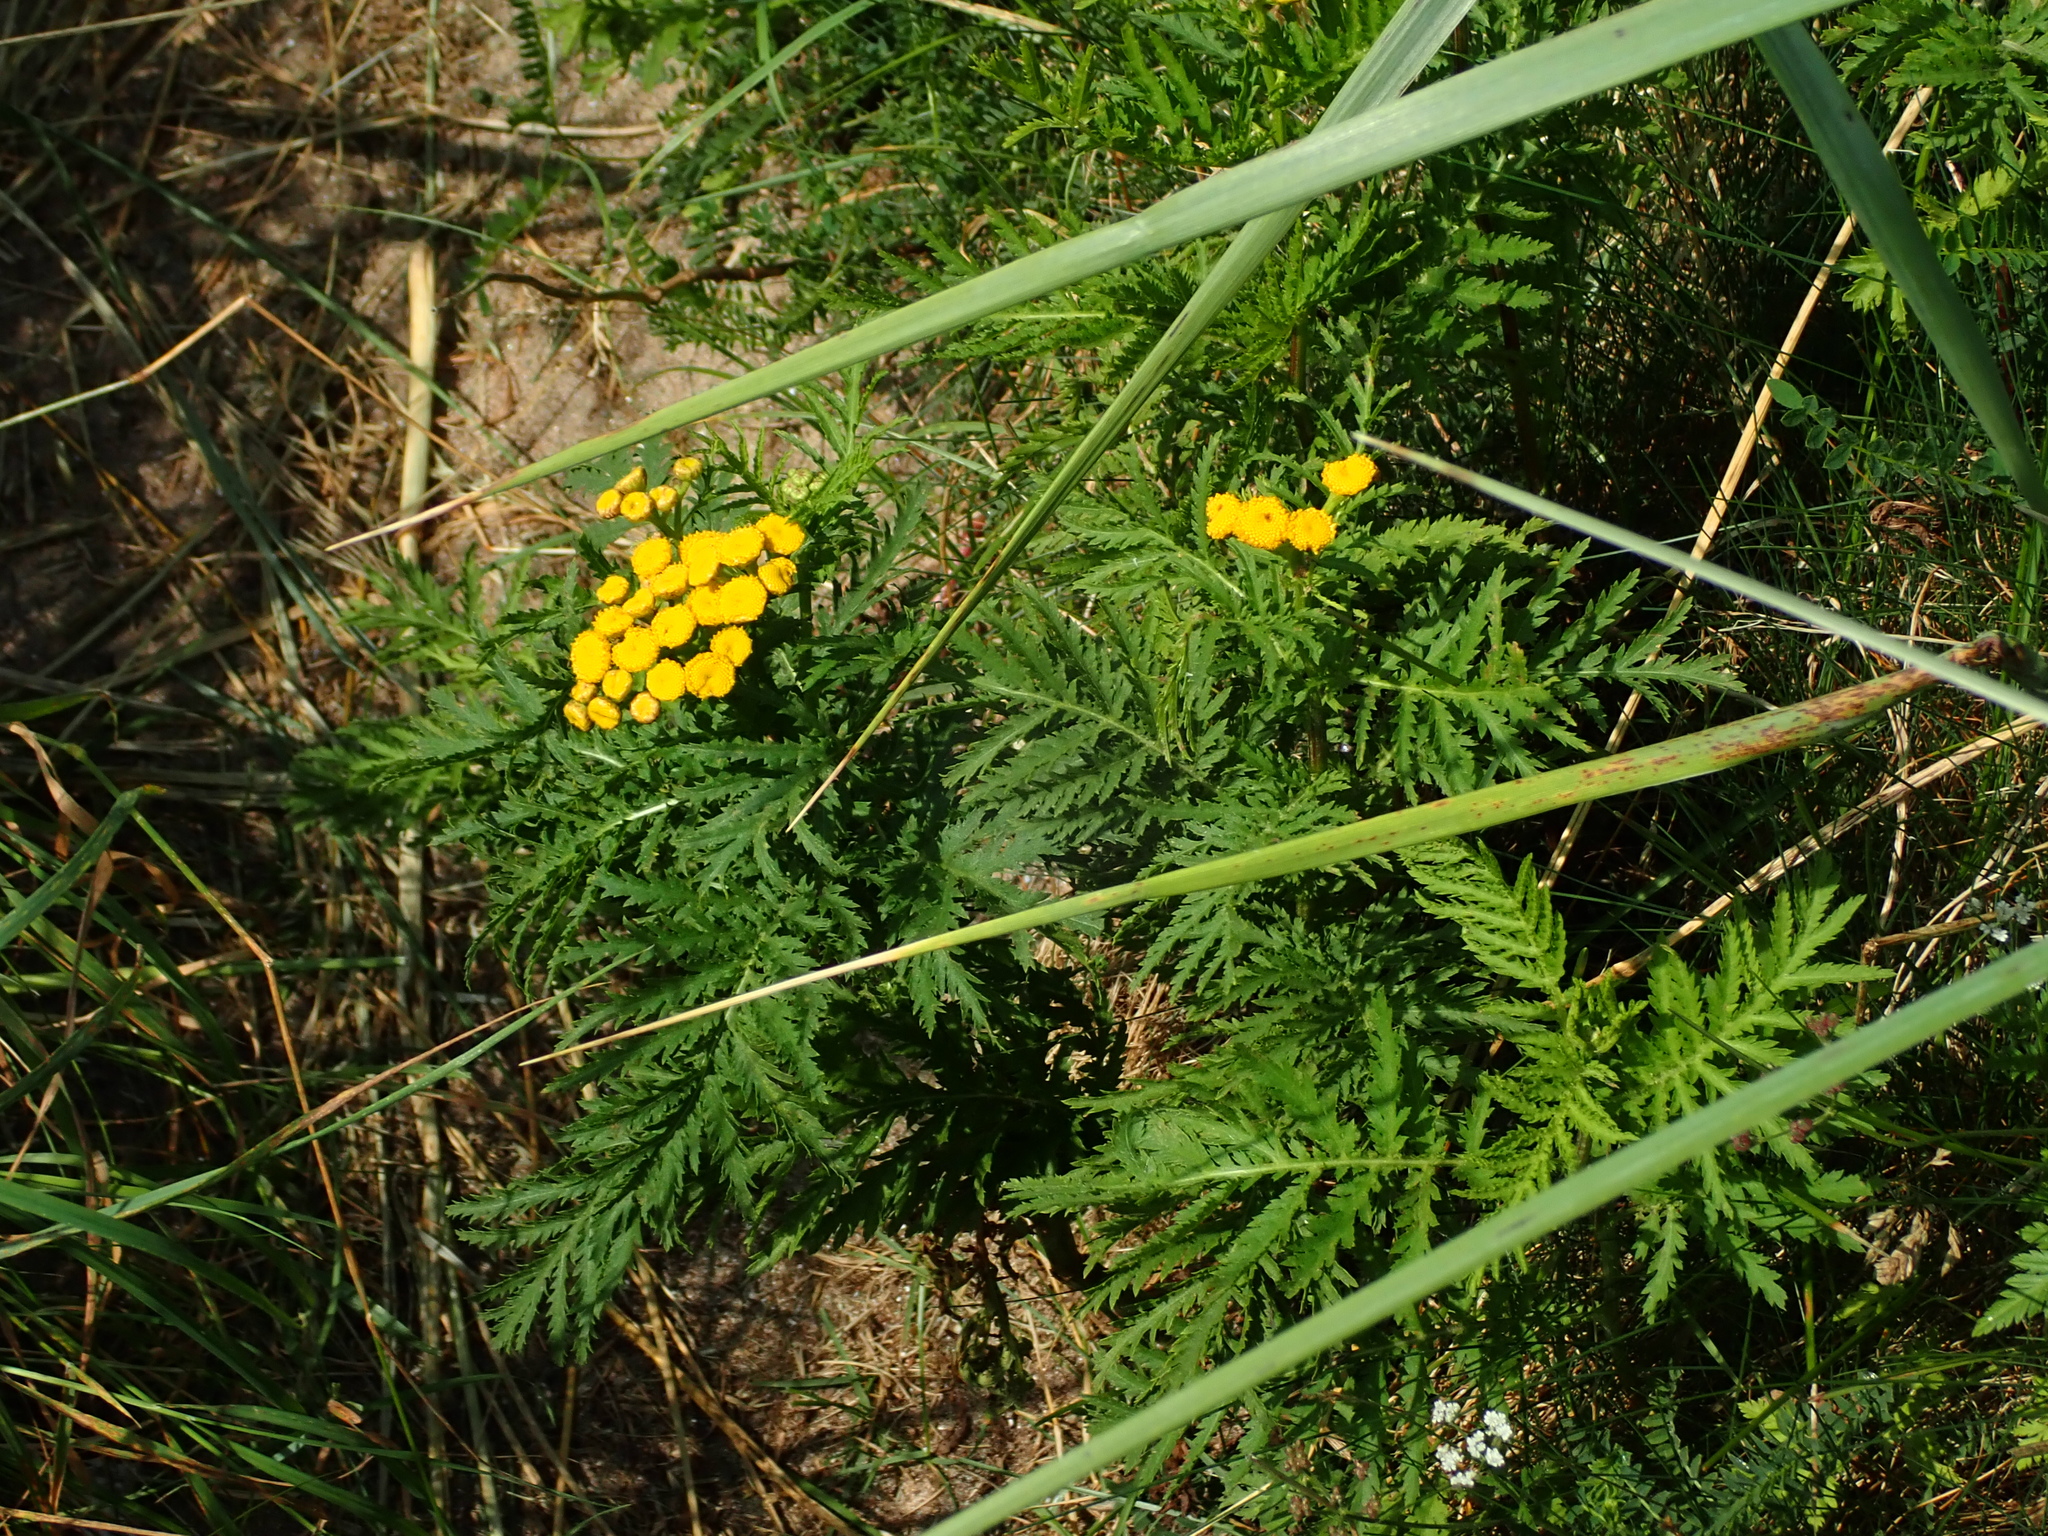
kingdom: Plantae
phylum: Tracheophyta
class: Magnoliopsida
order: Asterales
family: Asteraceae
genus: Tanacetum
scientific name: Tanacetum vulgare
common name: Common tansy
